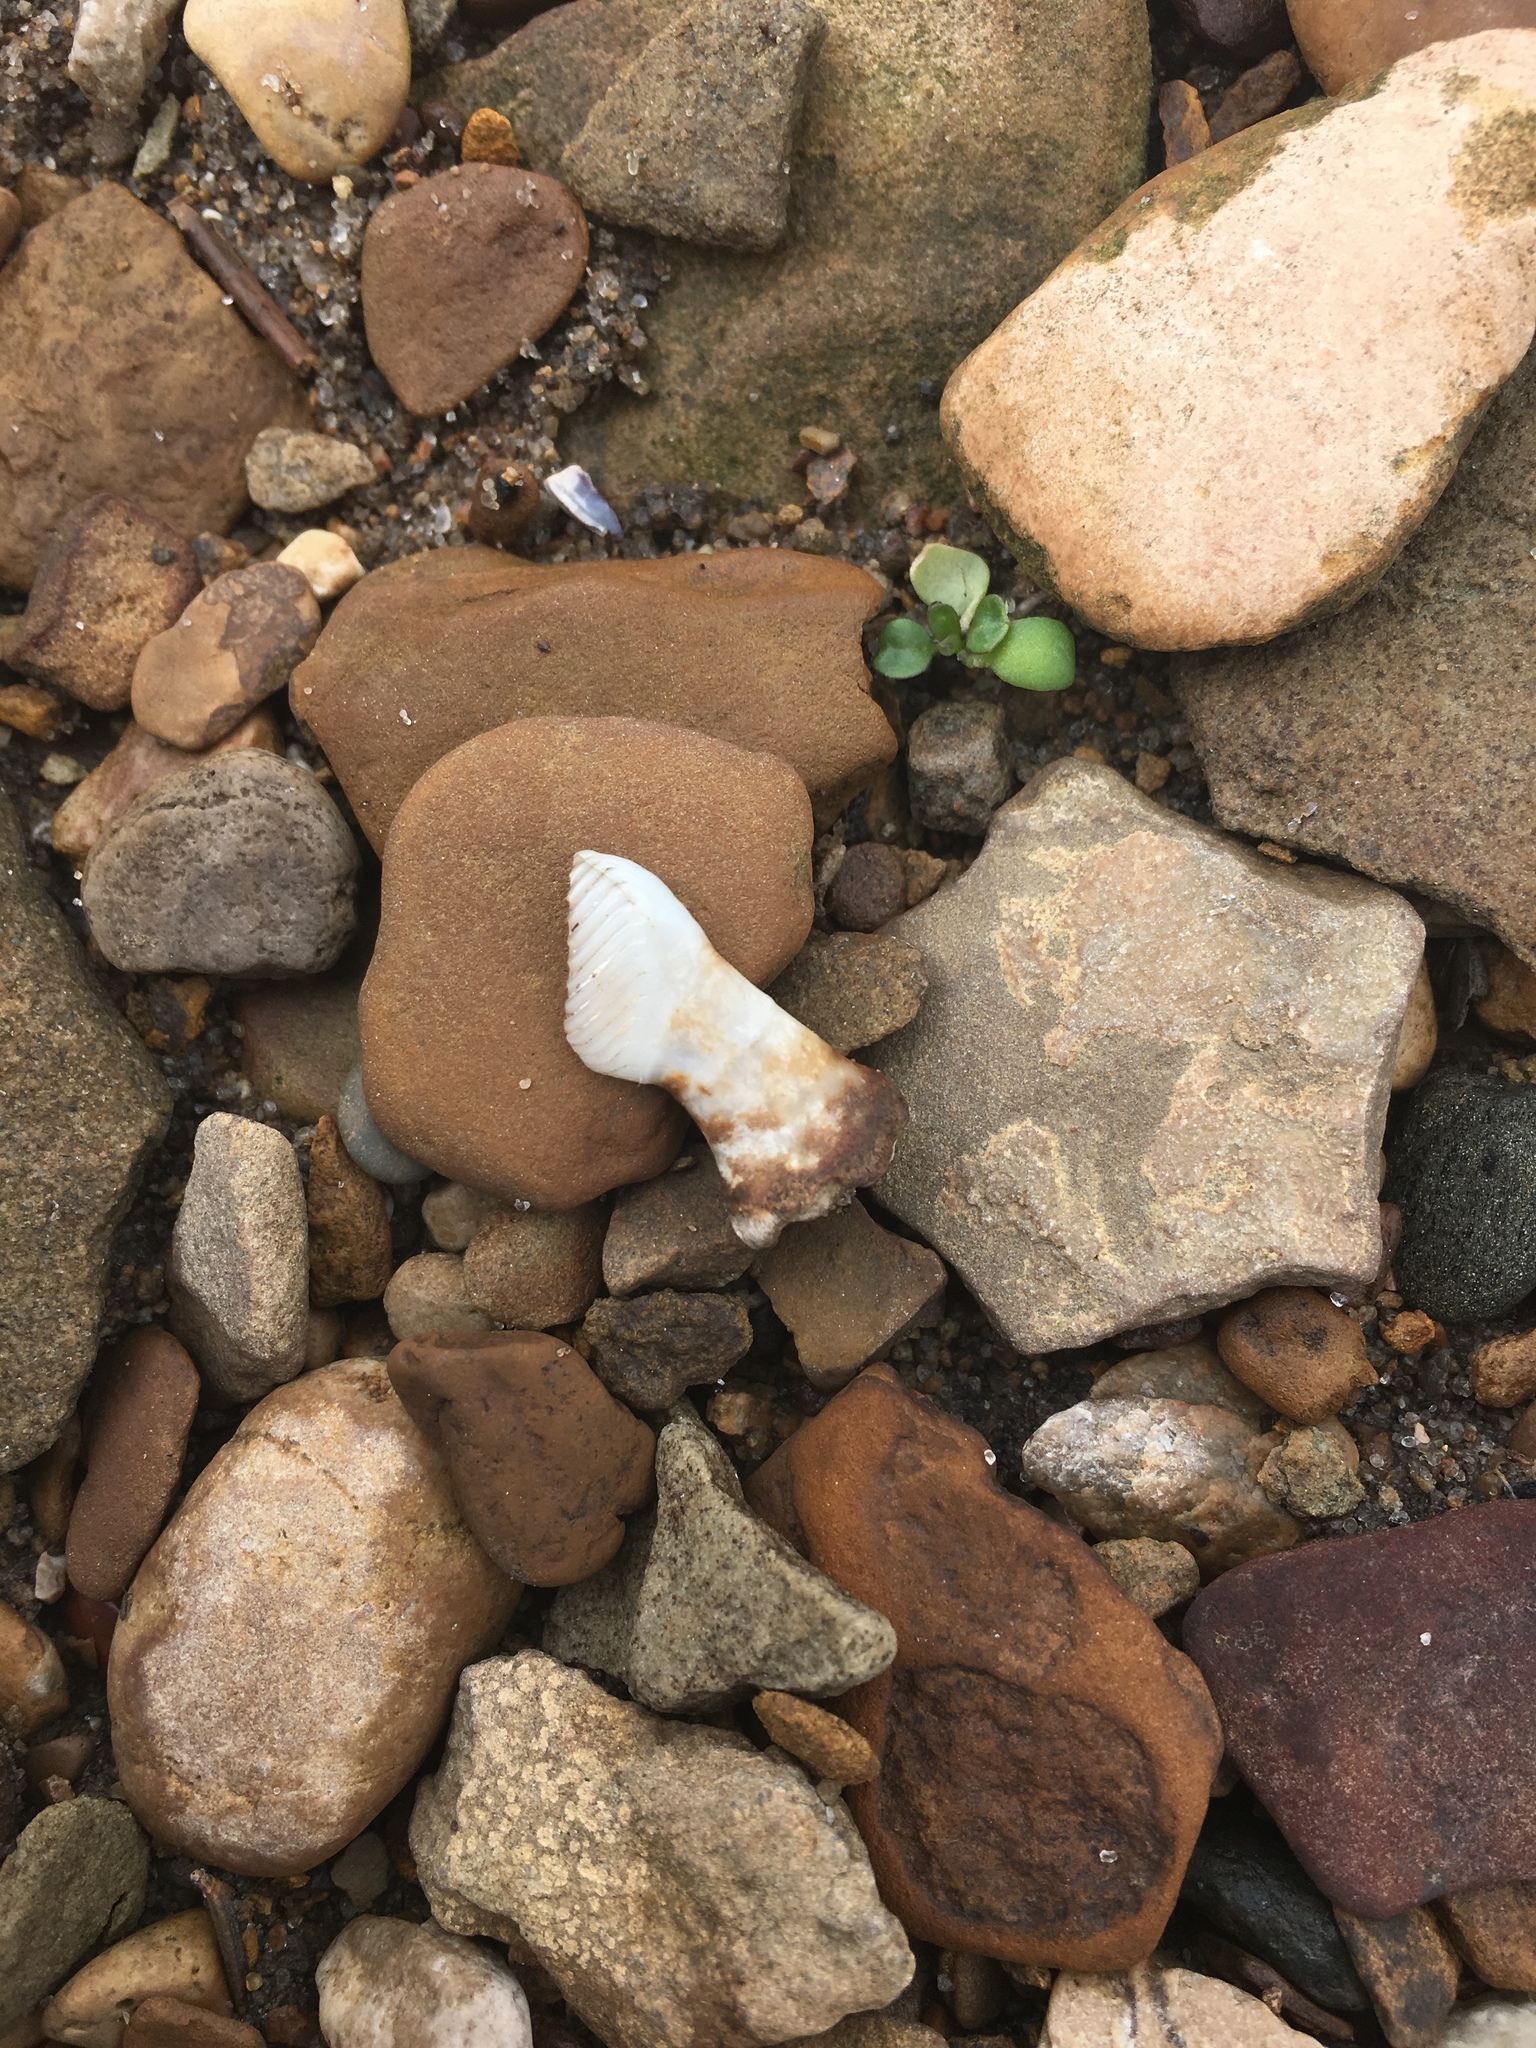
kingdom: Animalia
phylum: Chordata
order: Cypriniformes
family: Cyprinidae
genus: Ctenopharyngodon
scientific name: Ctenopharyngodon idella
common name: Grass carp
